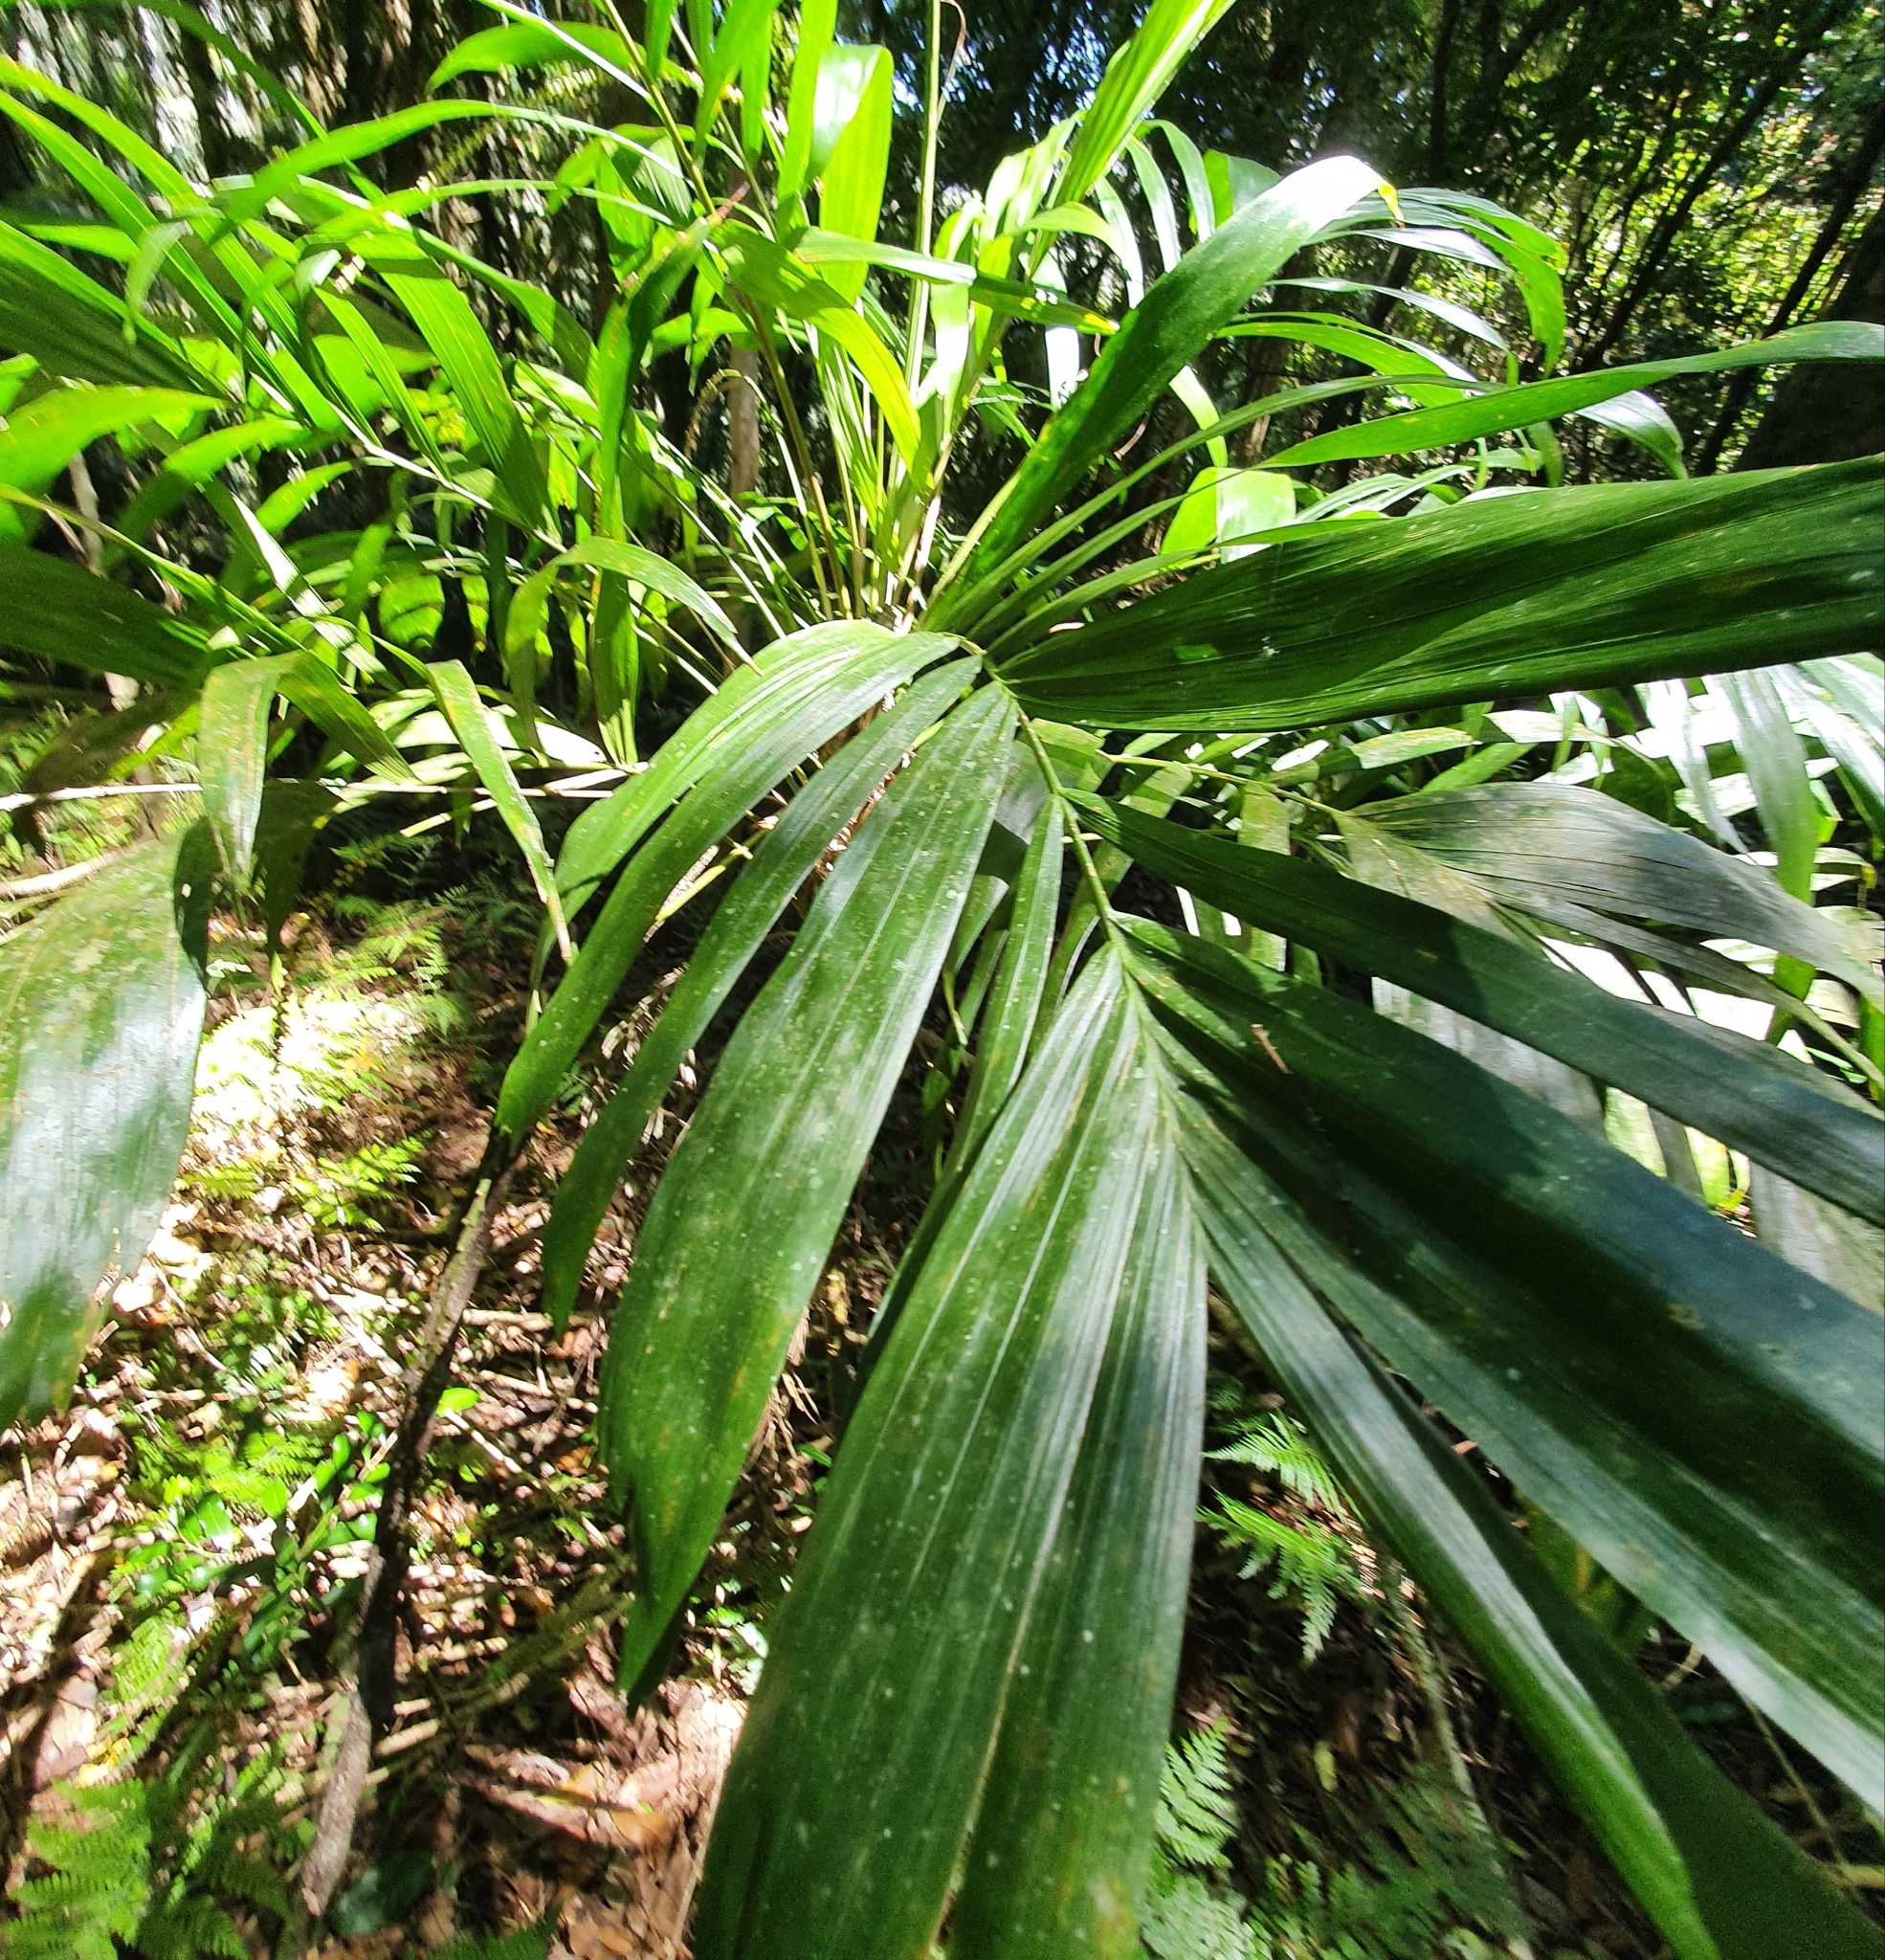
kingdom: Plantae
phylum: Tracheophyta
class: Liliopsida
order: Arecales
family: Arecaceae
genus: Linospadix
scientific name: Linospadix monostachyus
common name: Walking-stick palm
